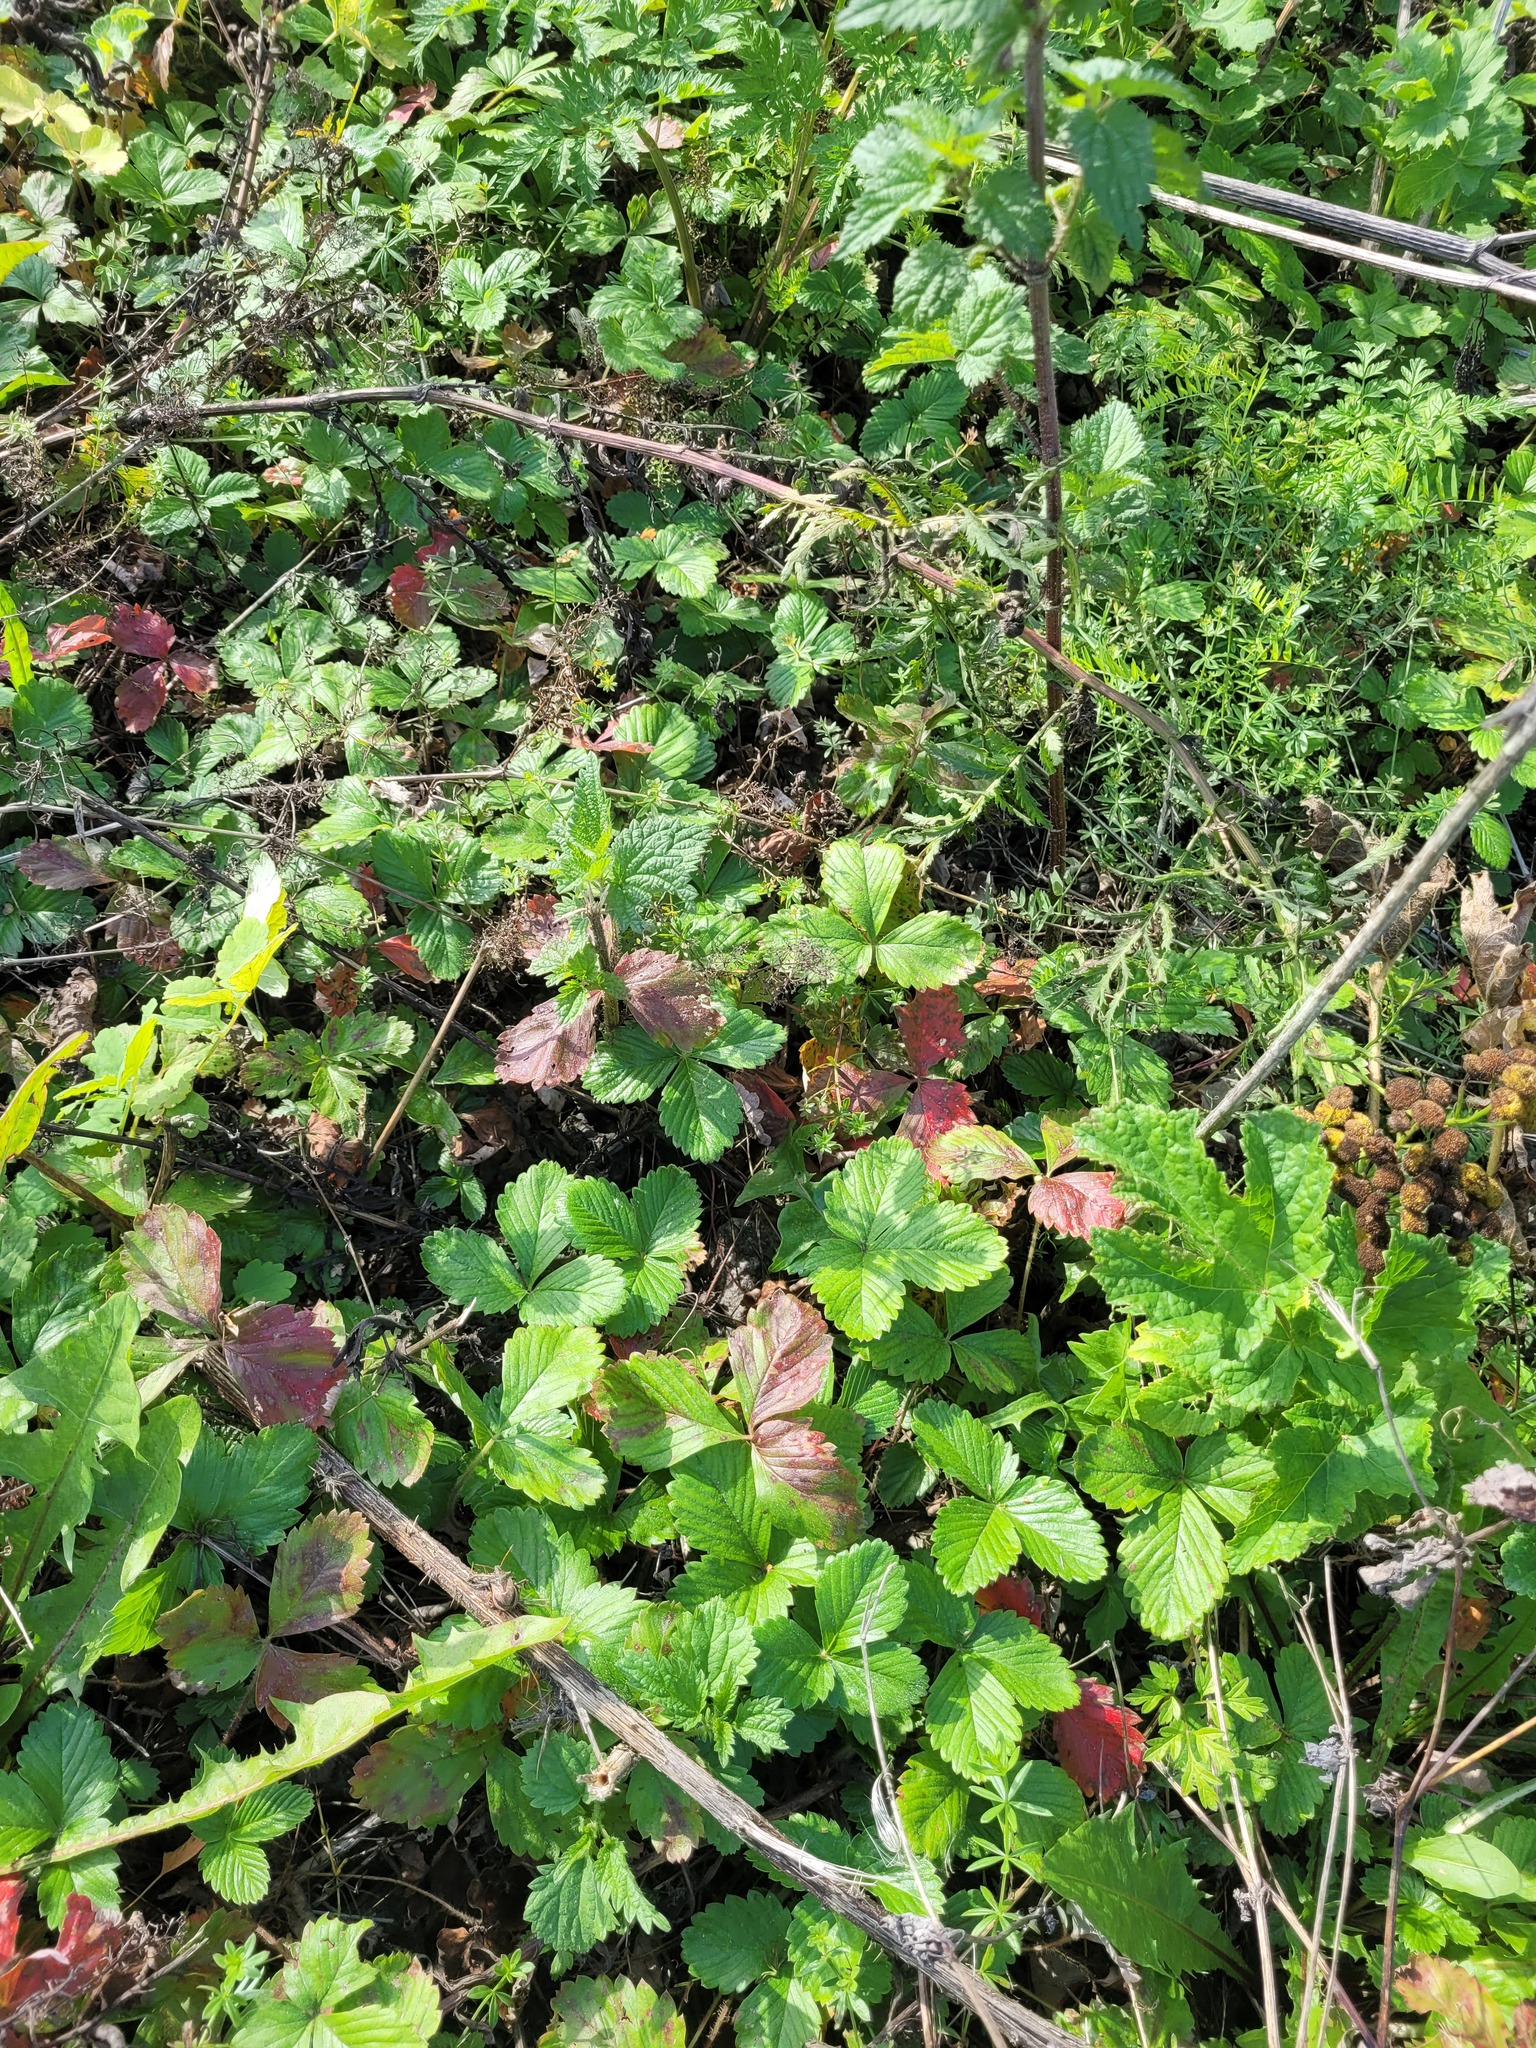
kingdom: Plantae
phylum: Tracheophyta
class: Magnoliopsida
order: Rosales
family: Rosaceae
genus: Fragaria
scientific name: Fragaria viridis
